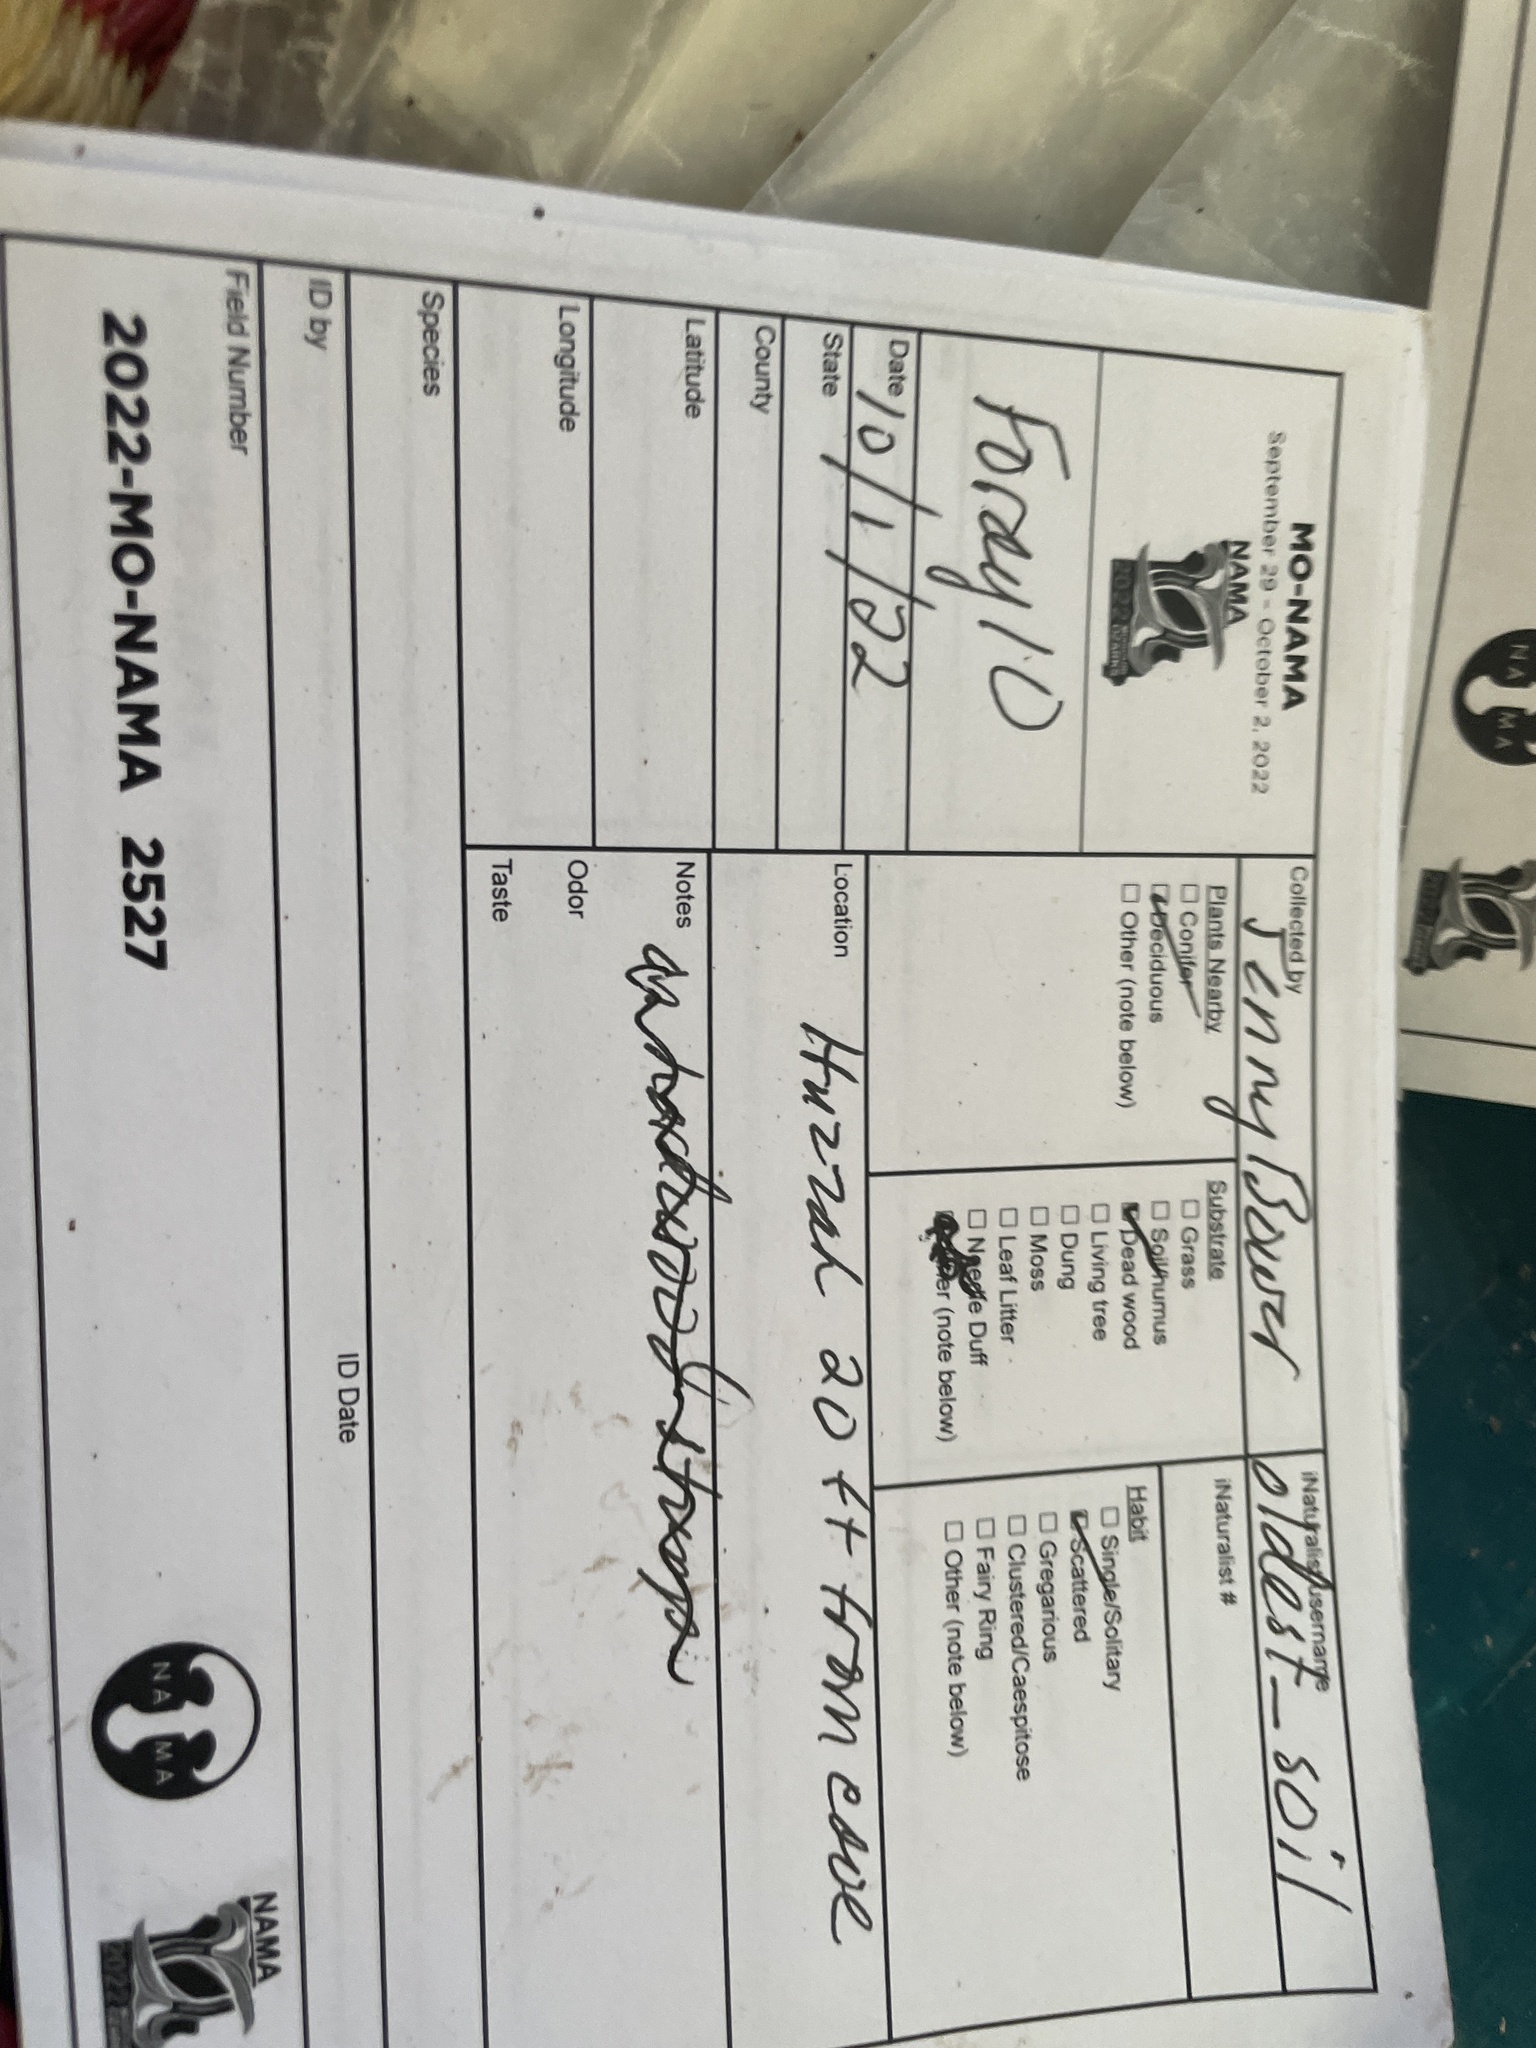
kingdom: Protozoa
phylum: Mycetozoa
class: Myxomycetes
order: Trichiales
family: Trichiaceae
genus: Metatrichia
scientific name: Metatrichia vesparia
